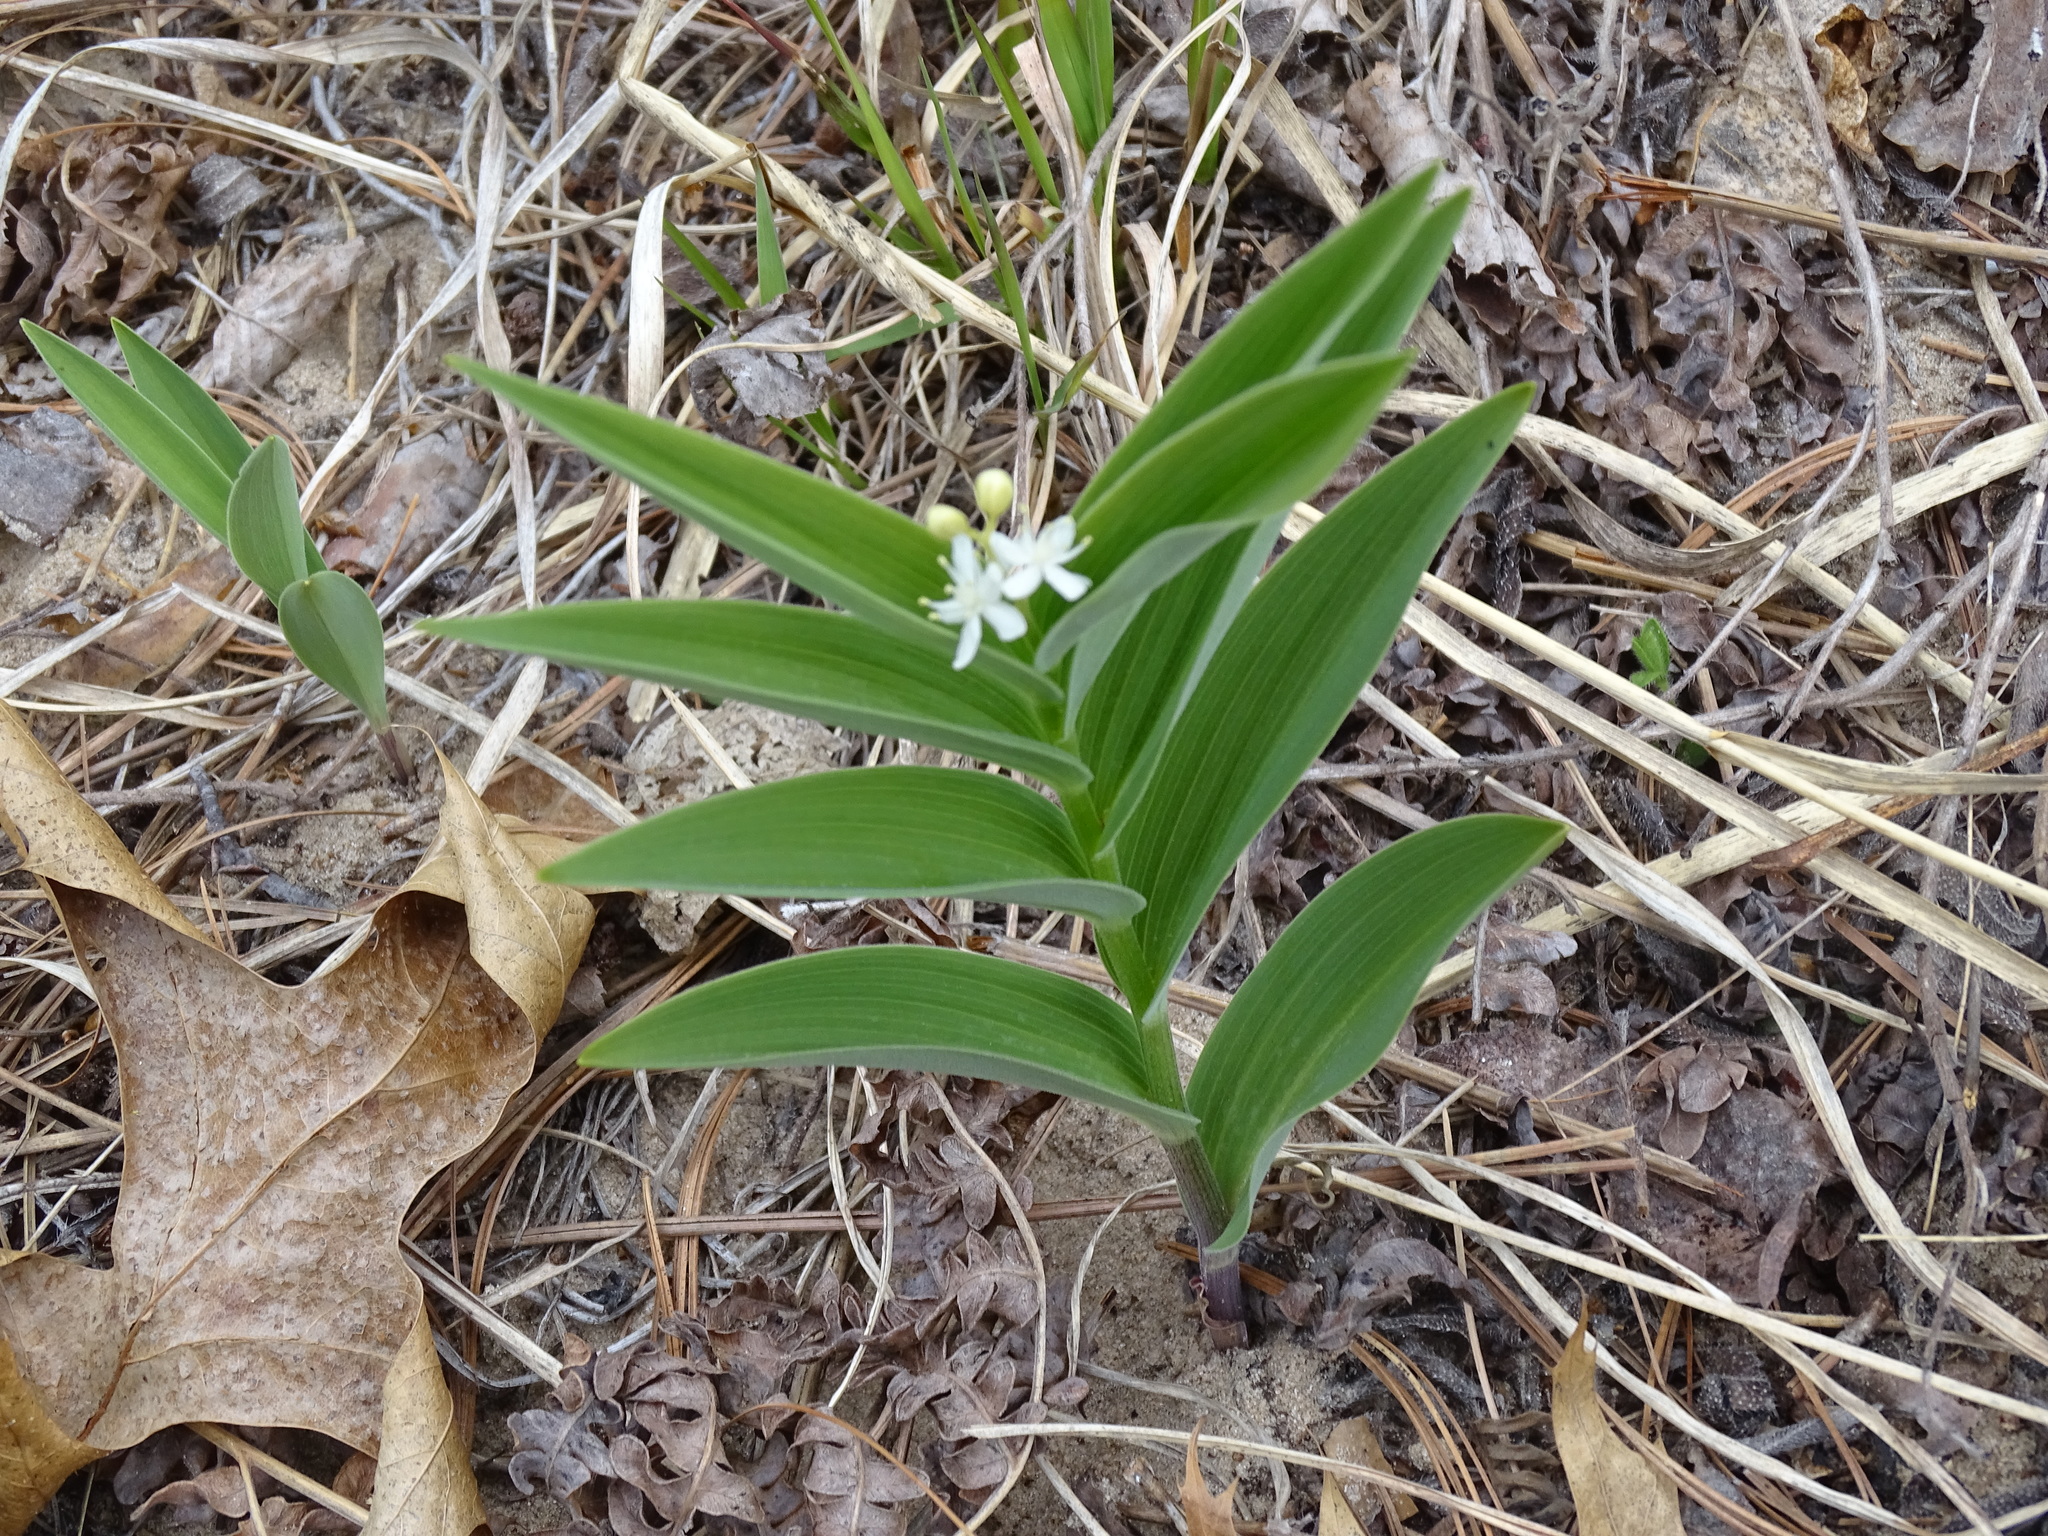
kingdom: Plantae
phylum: Tracheophyta
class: Liliopsida
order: Asparagales
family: Asparagaceae
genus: Maianthemum
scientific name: Maianthemum stellatum
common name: Little false solomon's seal
